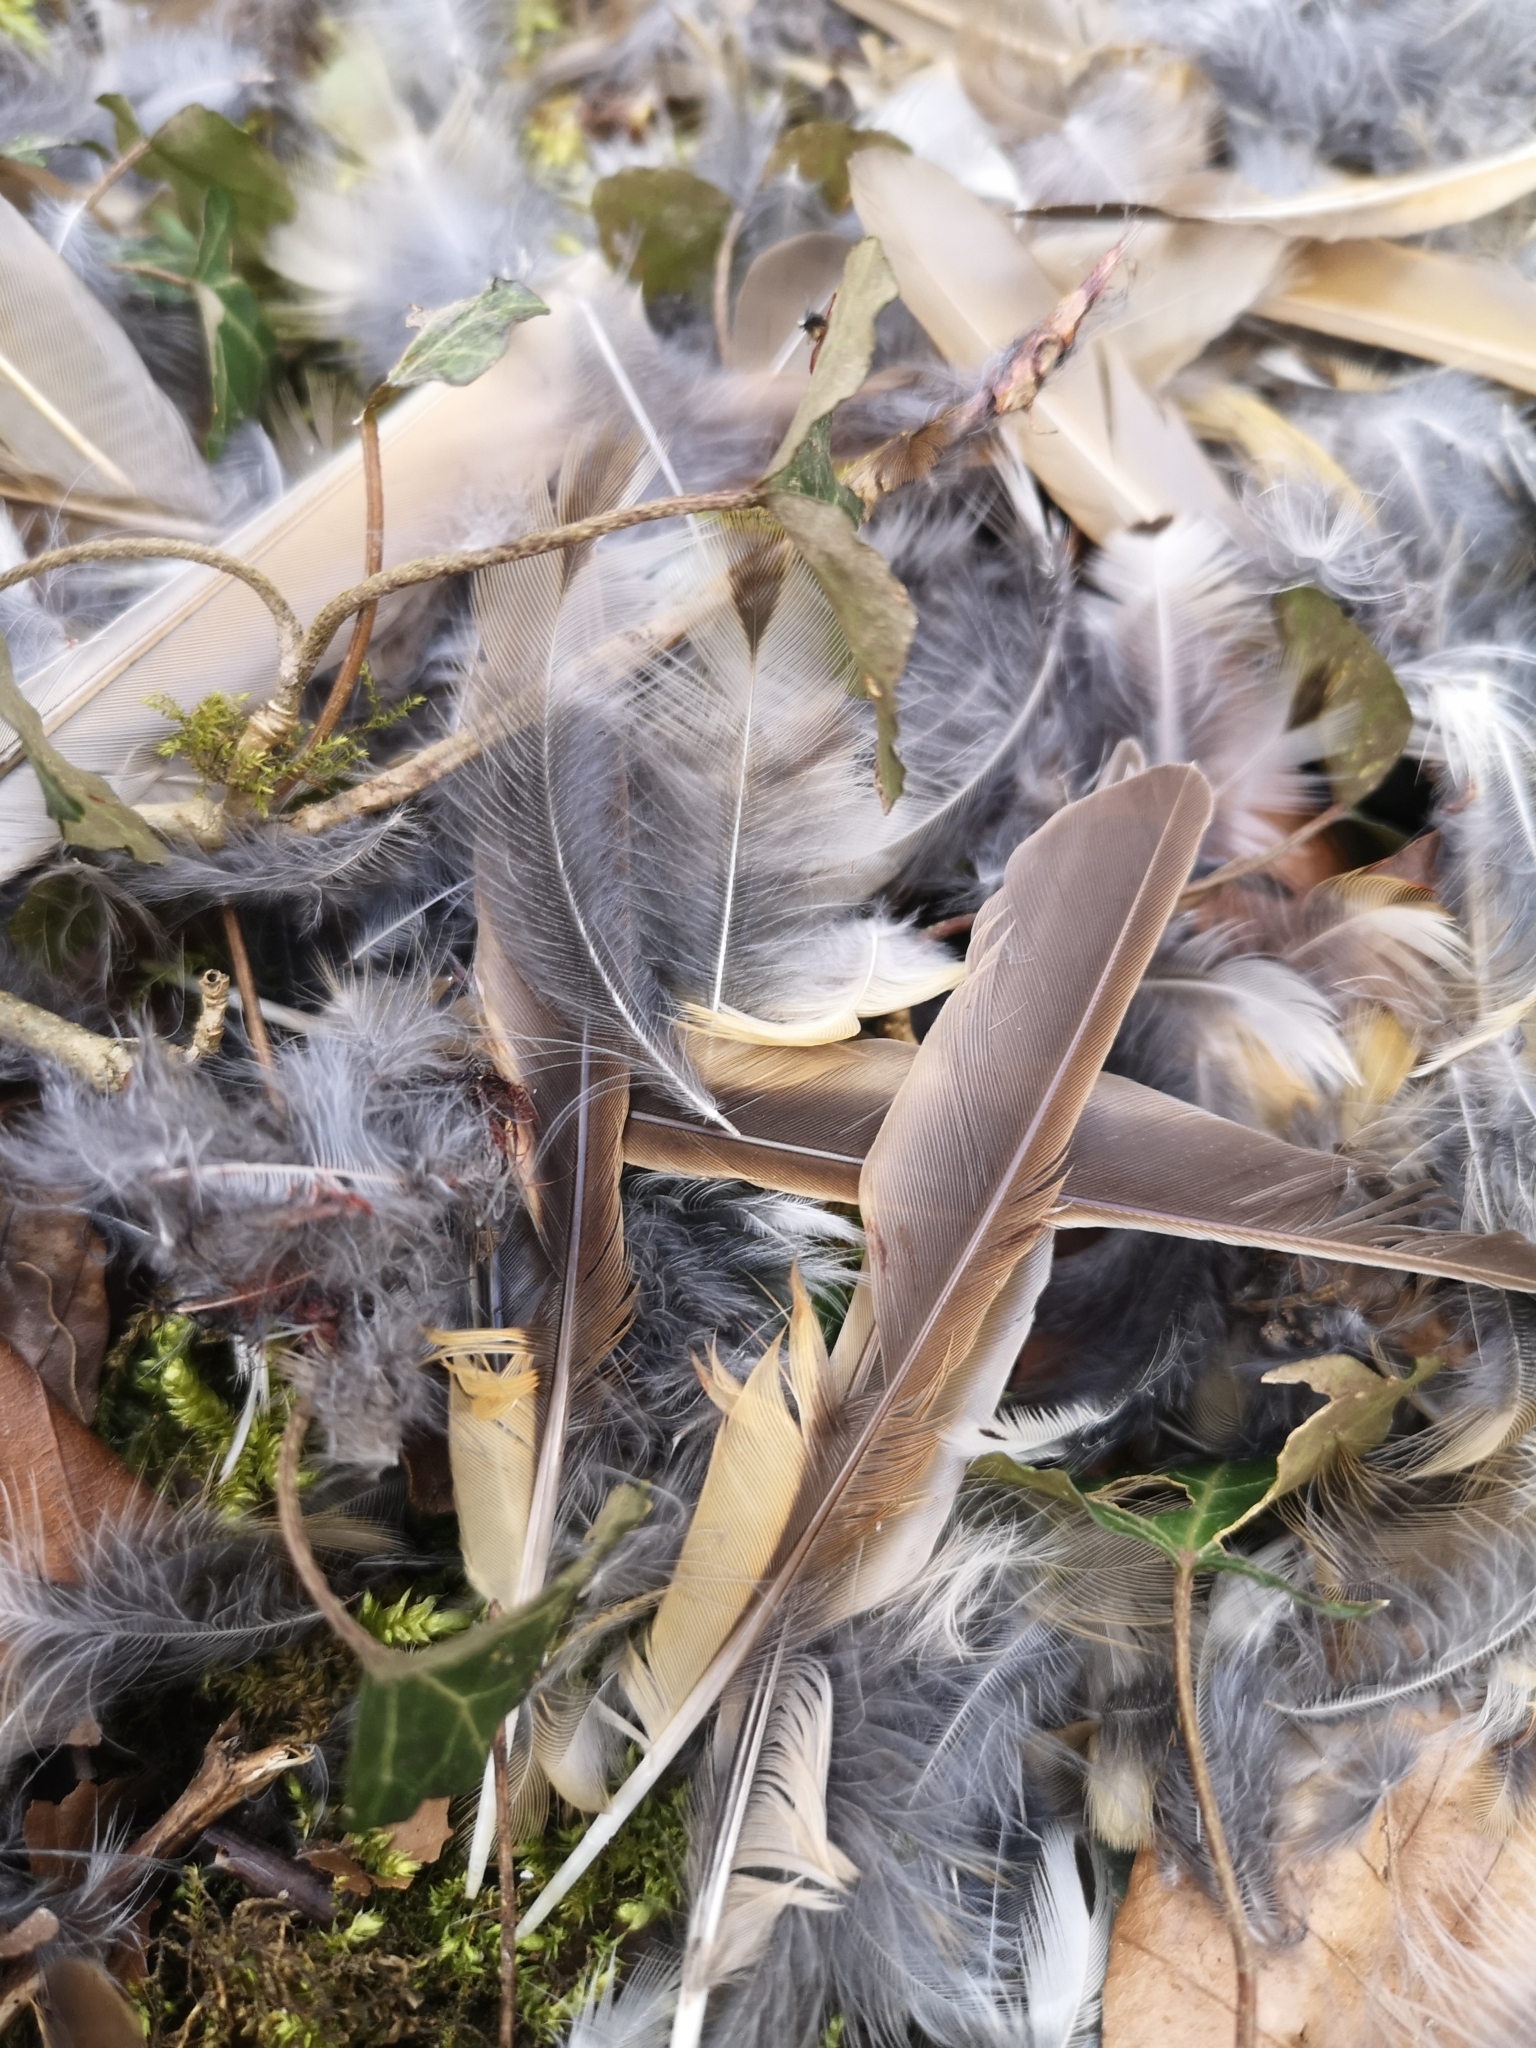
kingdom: Animalia
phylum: Chordata
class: Aves
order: Passeriformes
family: Turdidae
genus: Turdus
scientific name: Turdus philomelos
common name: Song thrush
